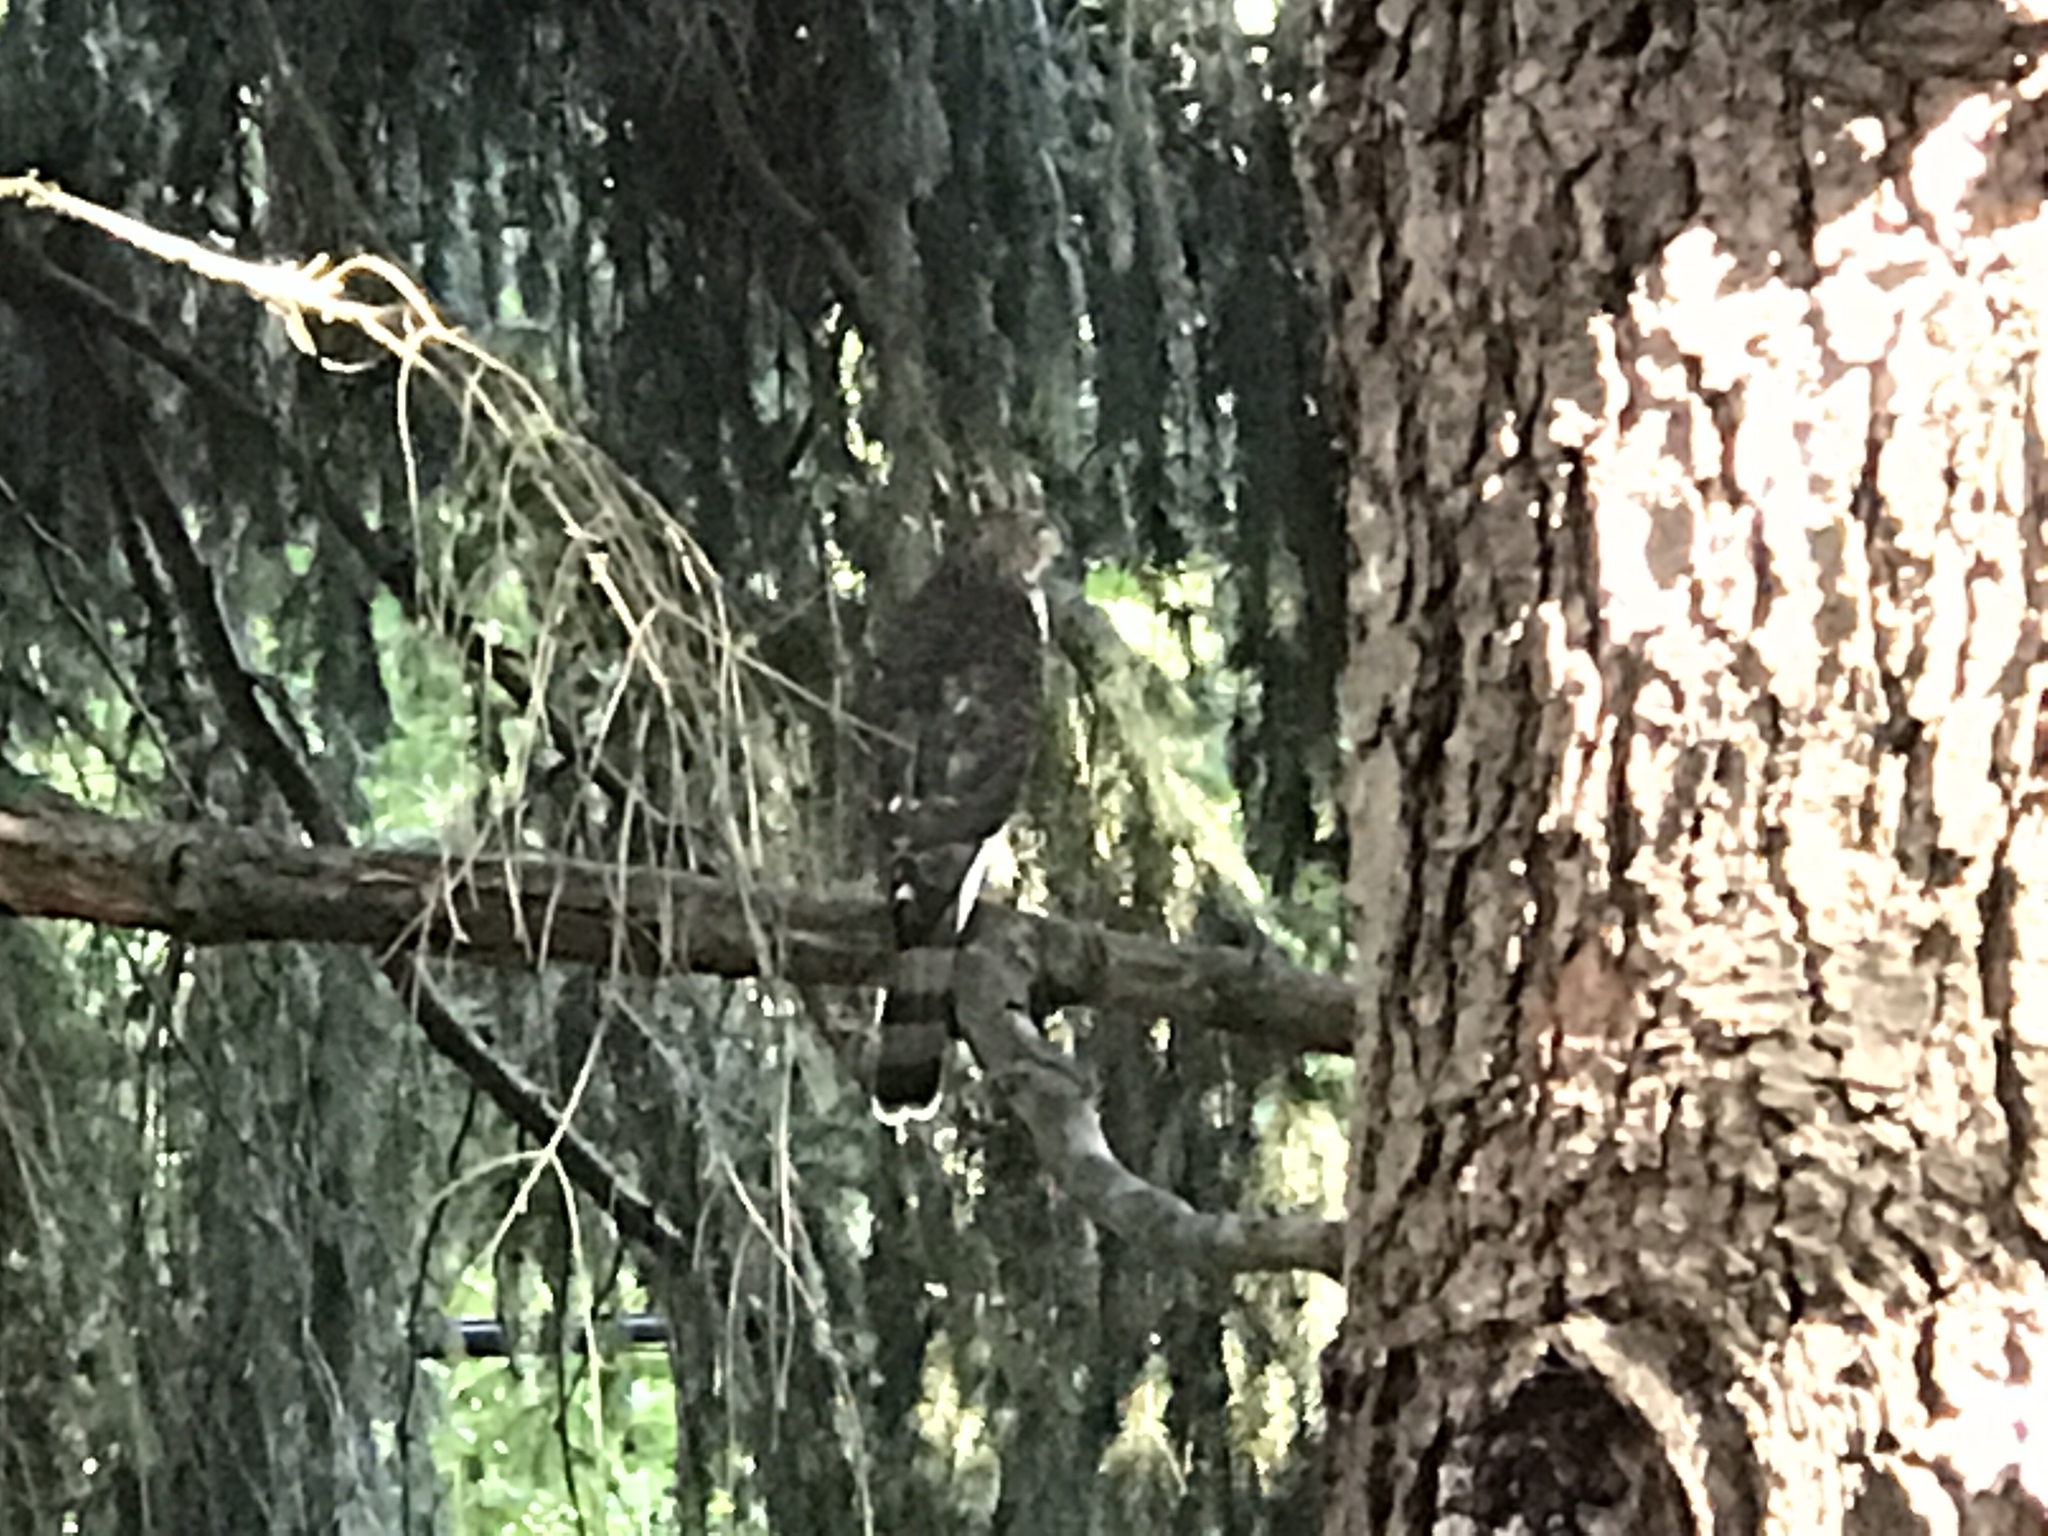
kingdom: Animalia
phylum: Chordata
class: Aves
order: Accipitriformes
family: Accipitridae
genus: Accipiter
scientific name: Accipiter cooperii
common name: Cooper's hawk
